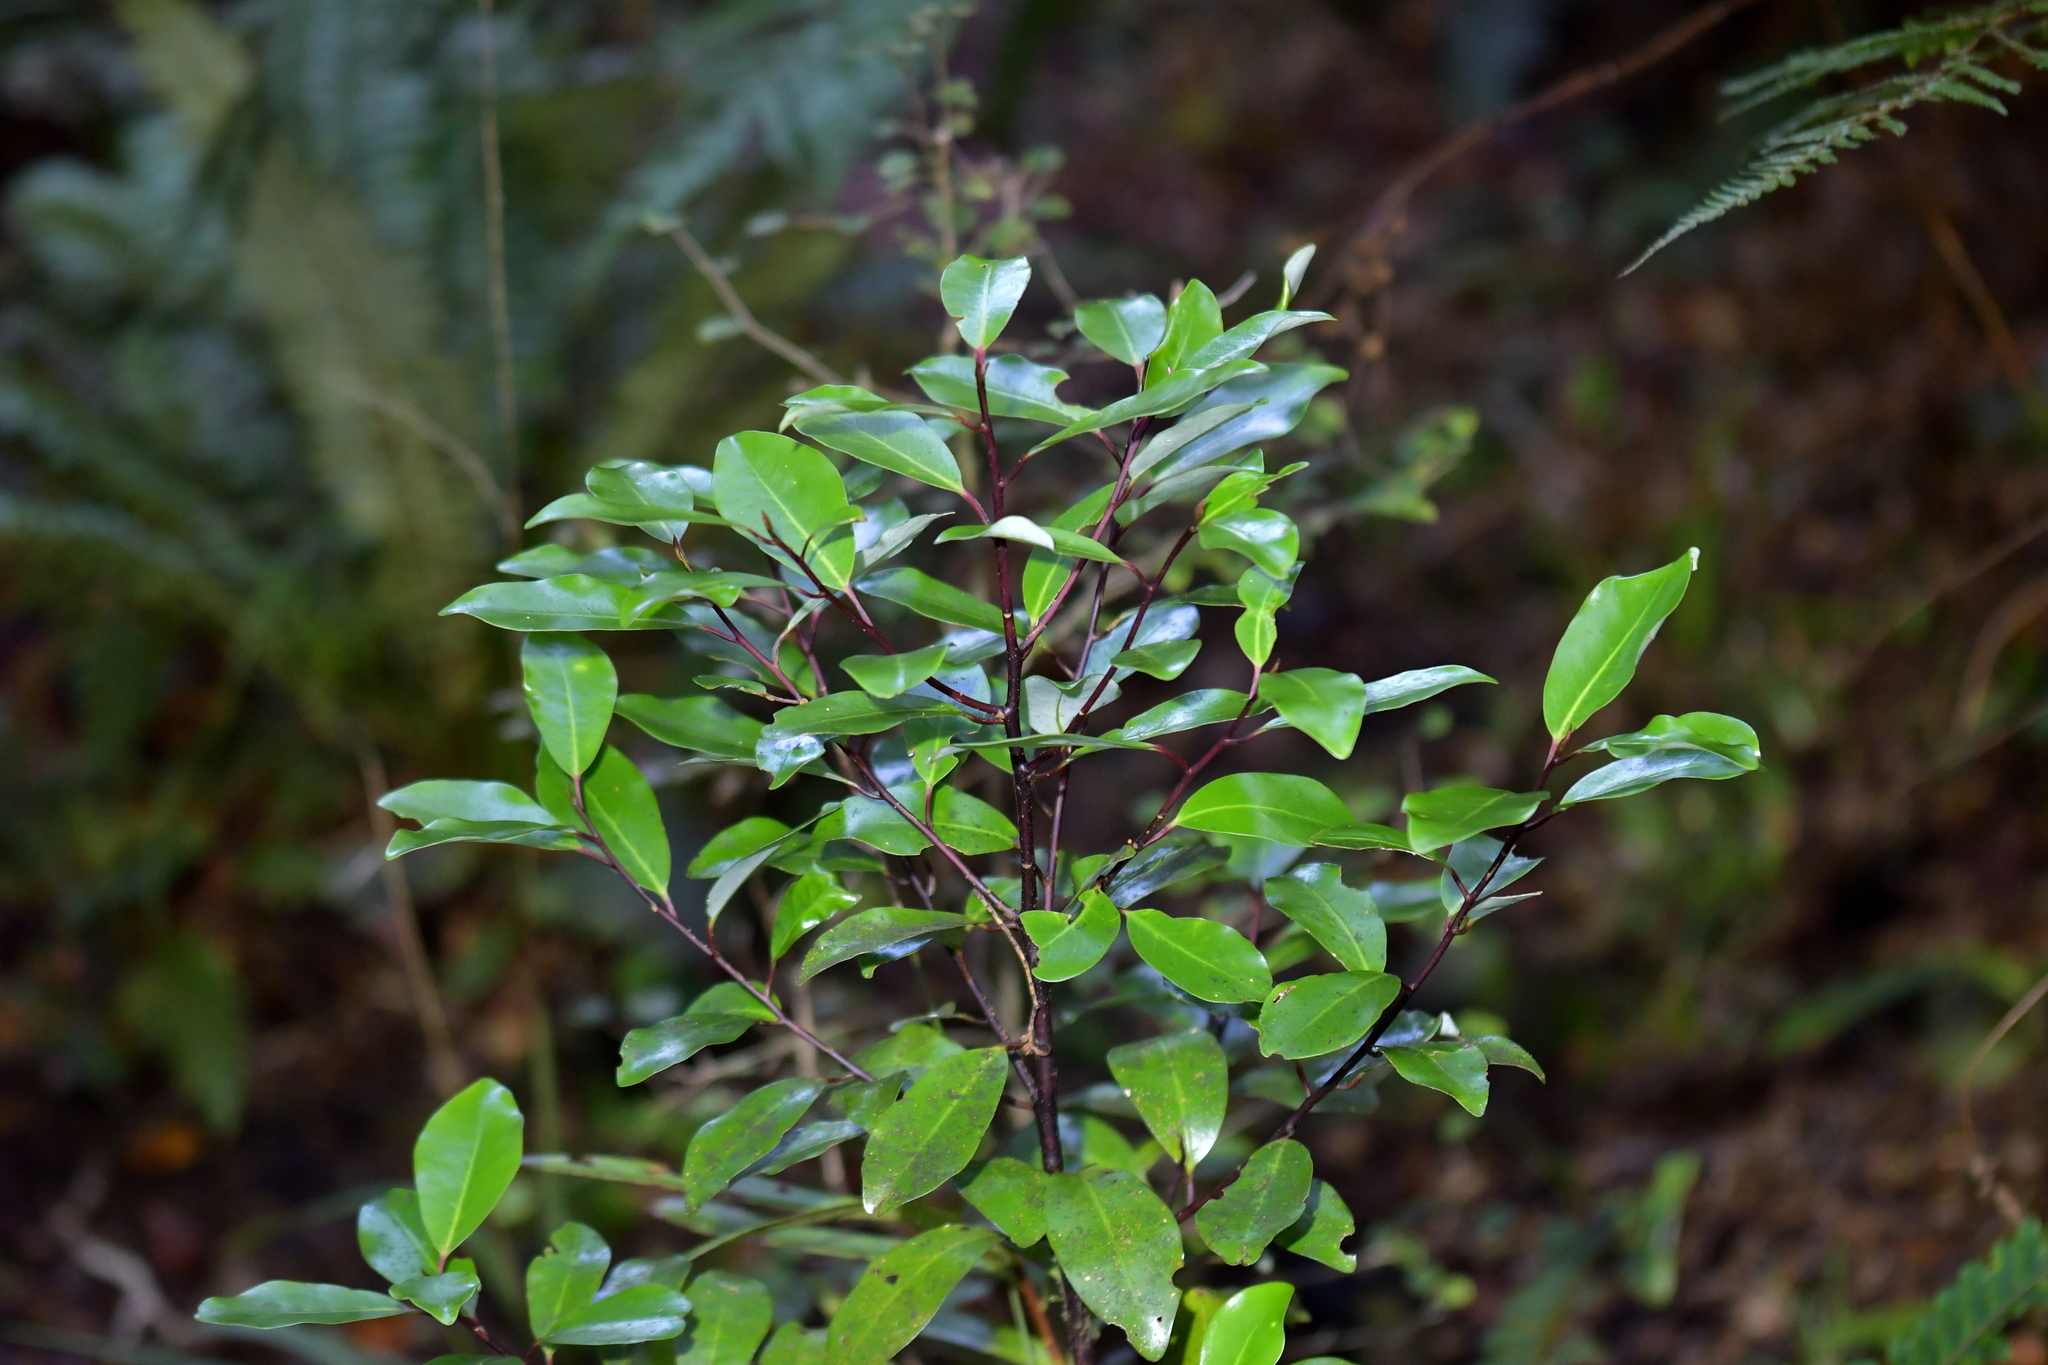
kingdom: Plantae
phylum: Tracheophyta
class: Magnoliopsida
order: Canellales
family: Winteraceae
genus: Pseudowintera
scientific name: Pseudowintera axillaris
